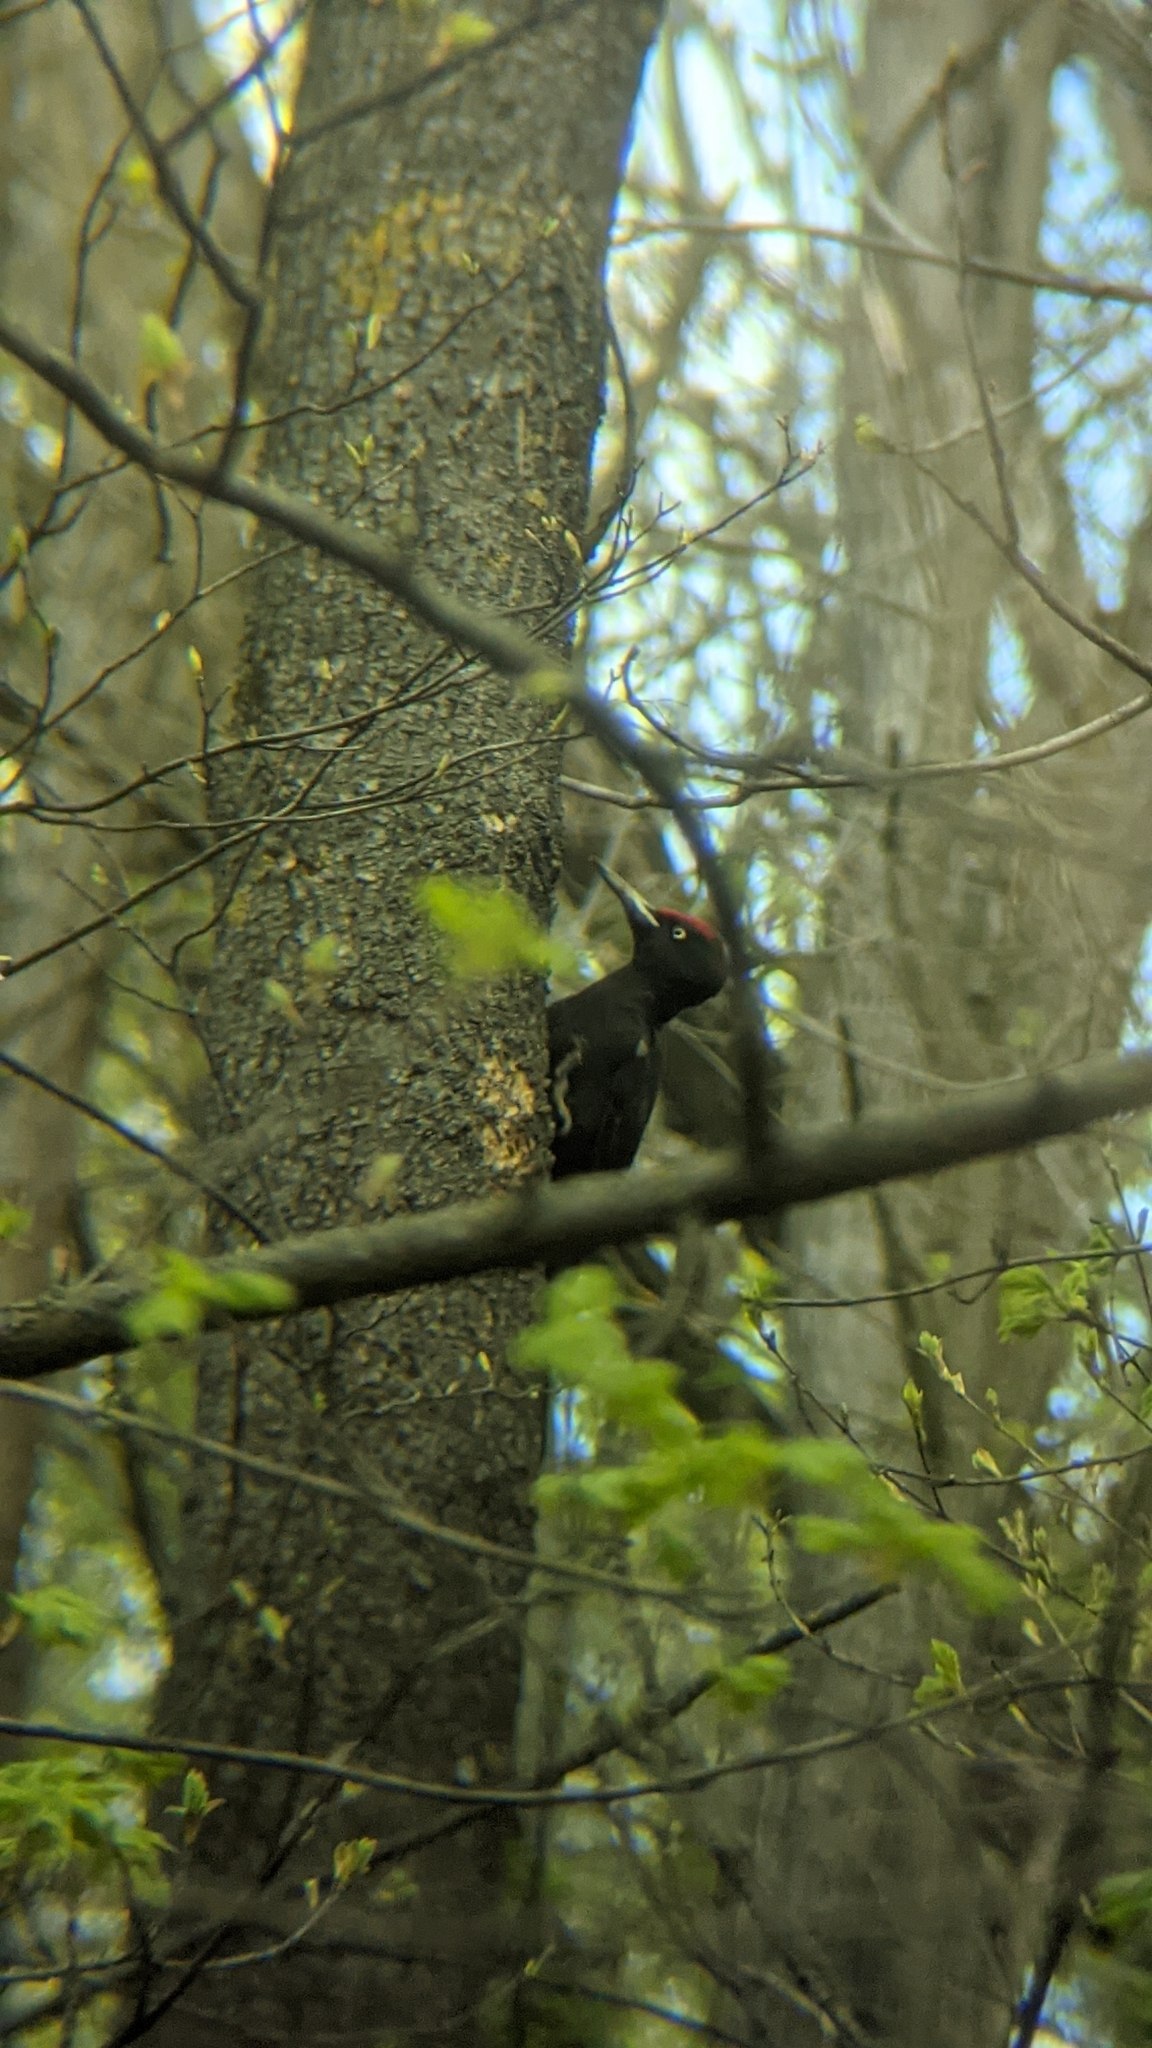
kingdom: Animalia
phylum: Chordata
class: Aves
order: Piciformes
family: Picidae
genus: Dryocopus
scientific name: Dryocopus martius
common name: Black woodpecker
